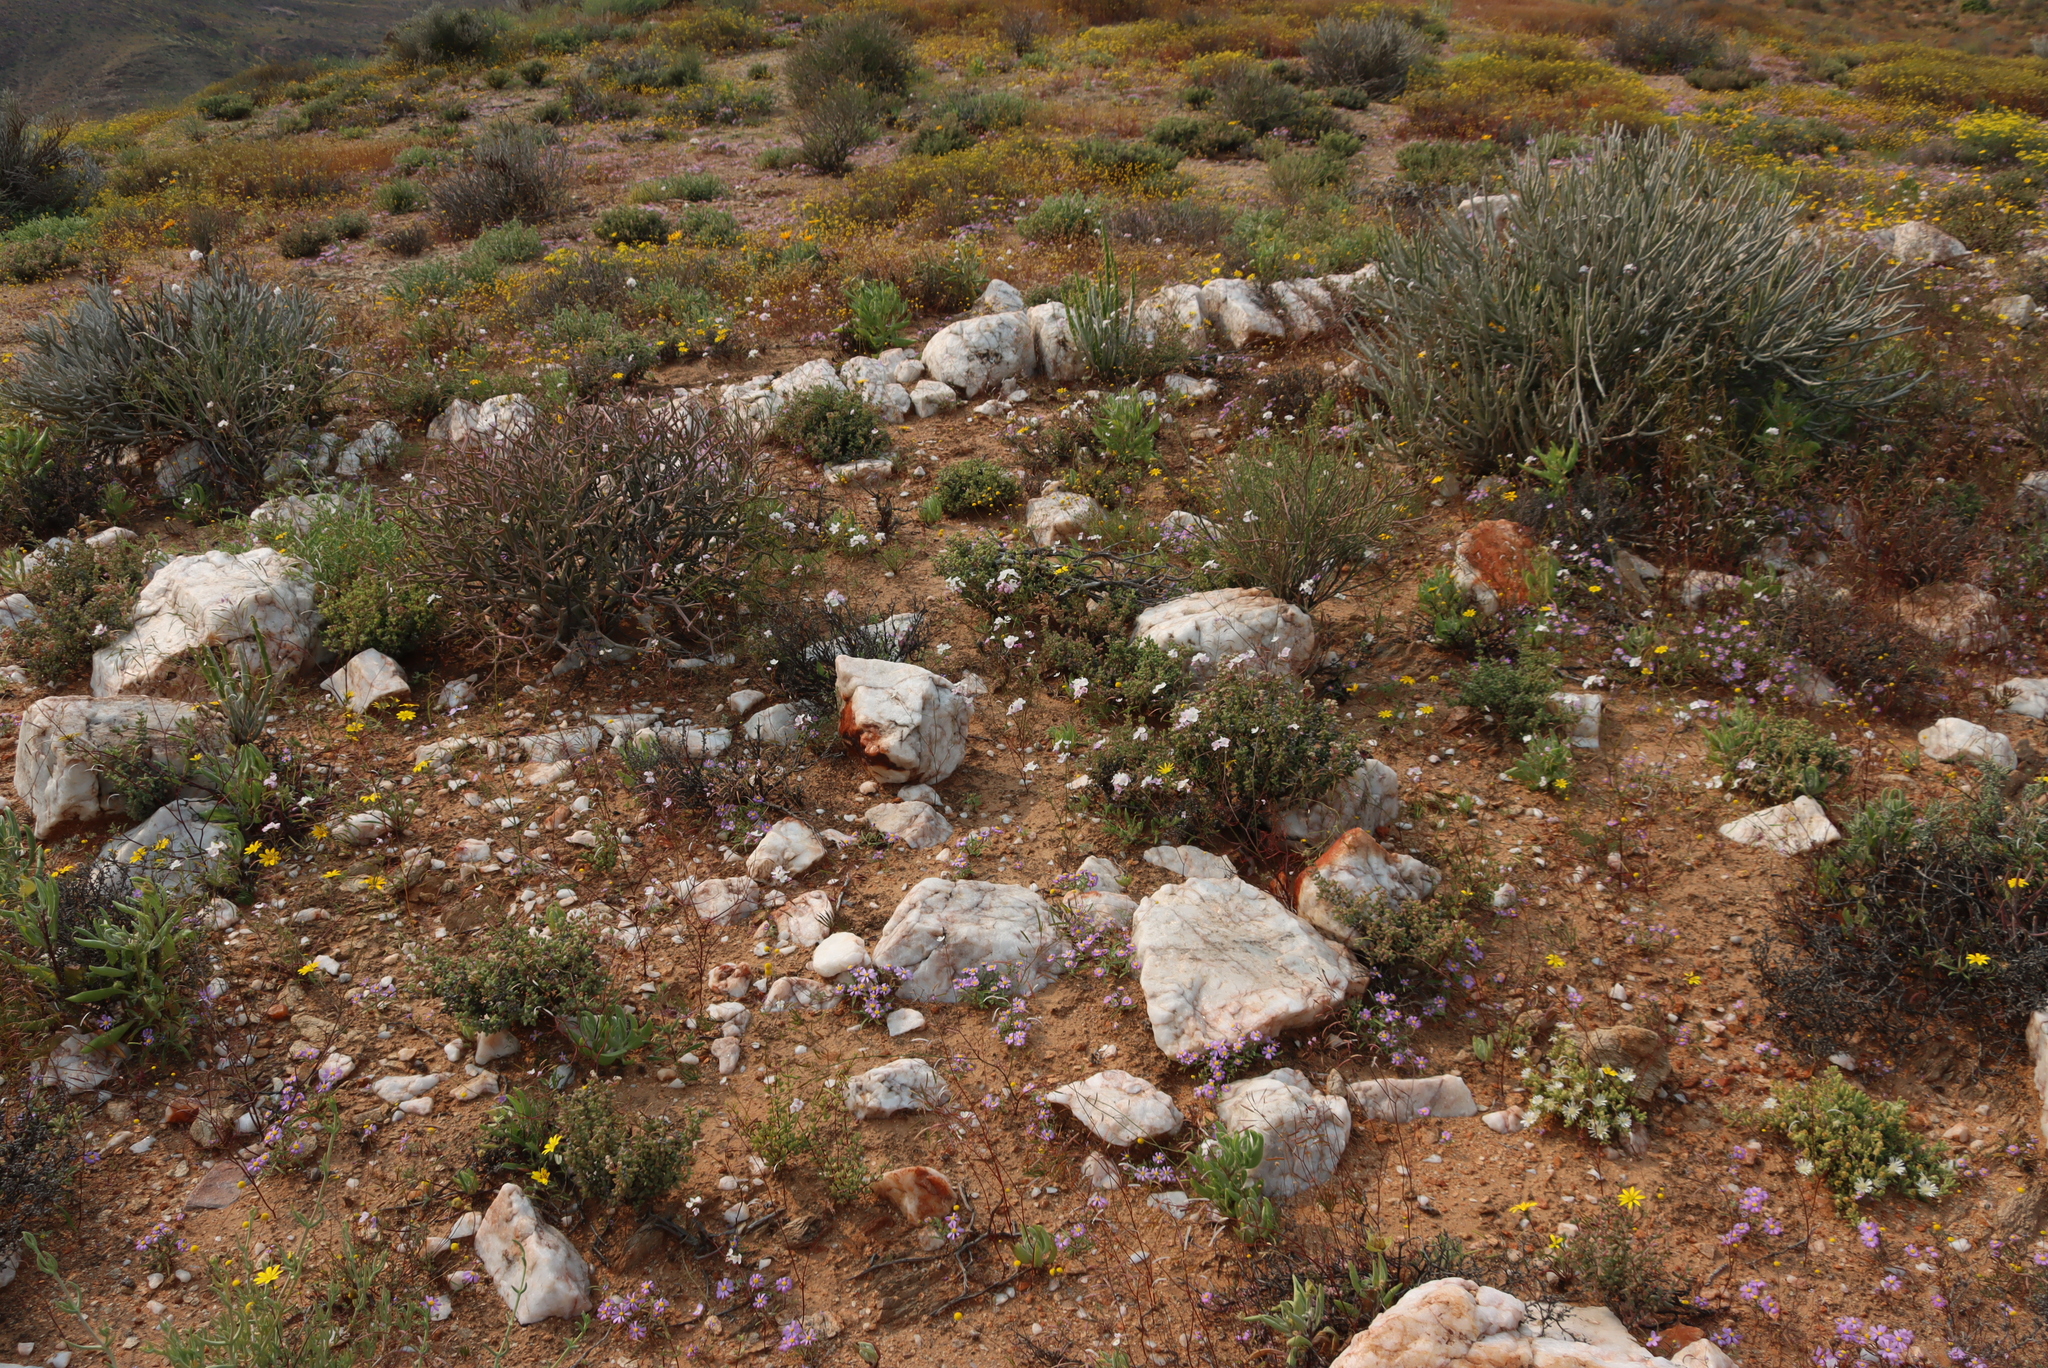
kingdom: Plantae
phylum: Tracheophyta
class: Magnoliopsida
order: Brassicales
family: Brassicaceae
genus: Heliophila
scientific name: Heliophila variabilis
